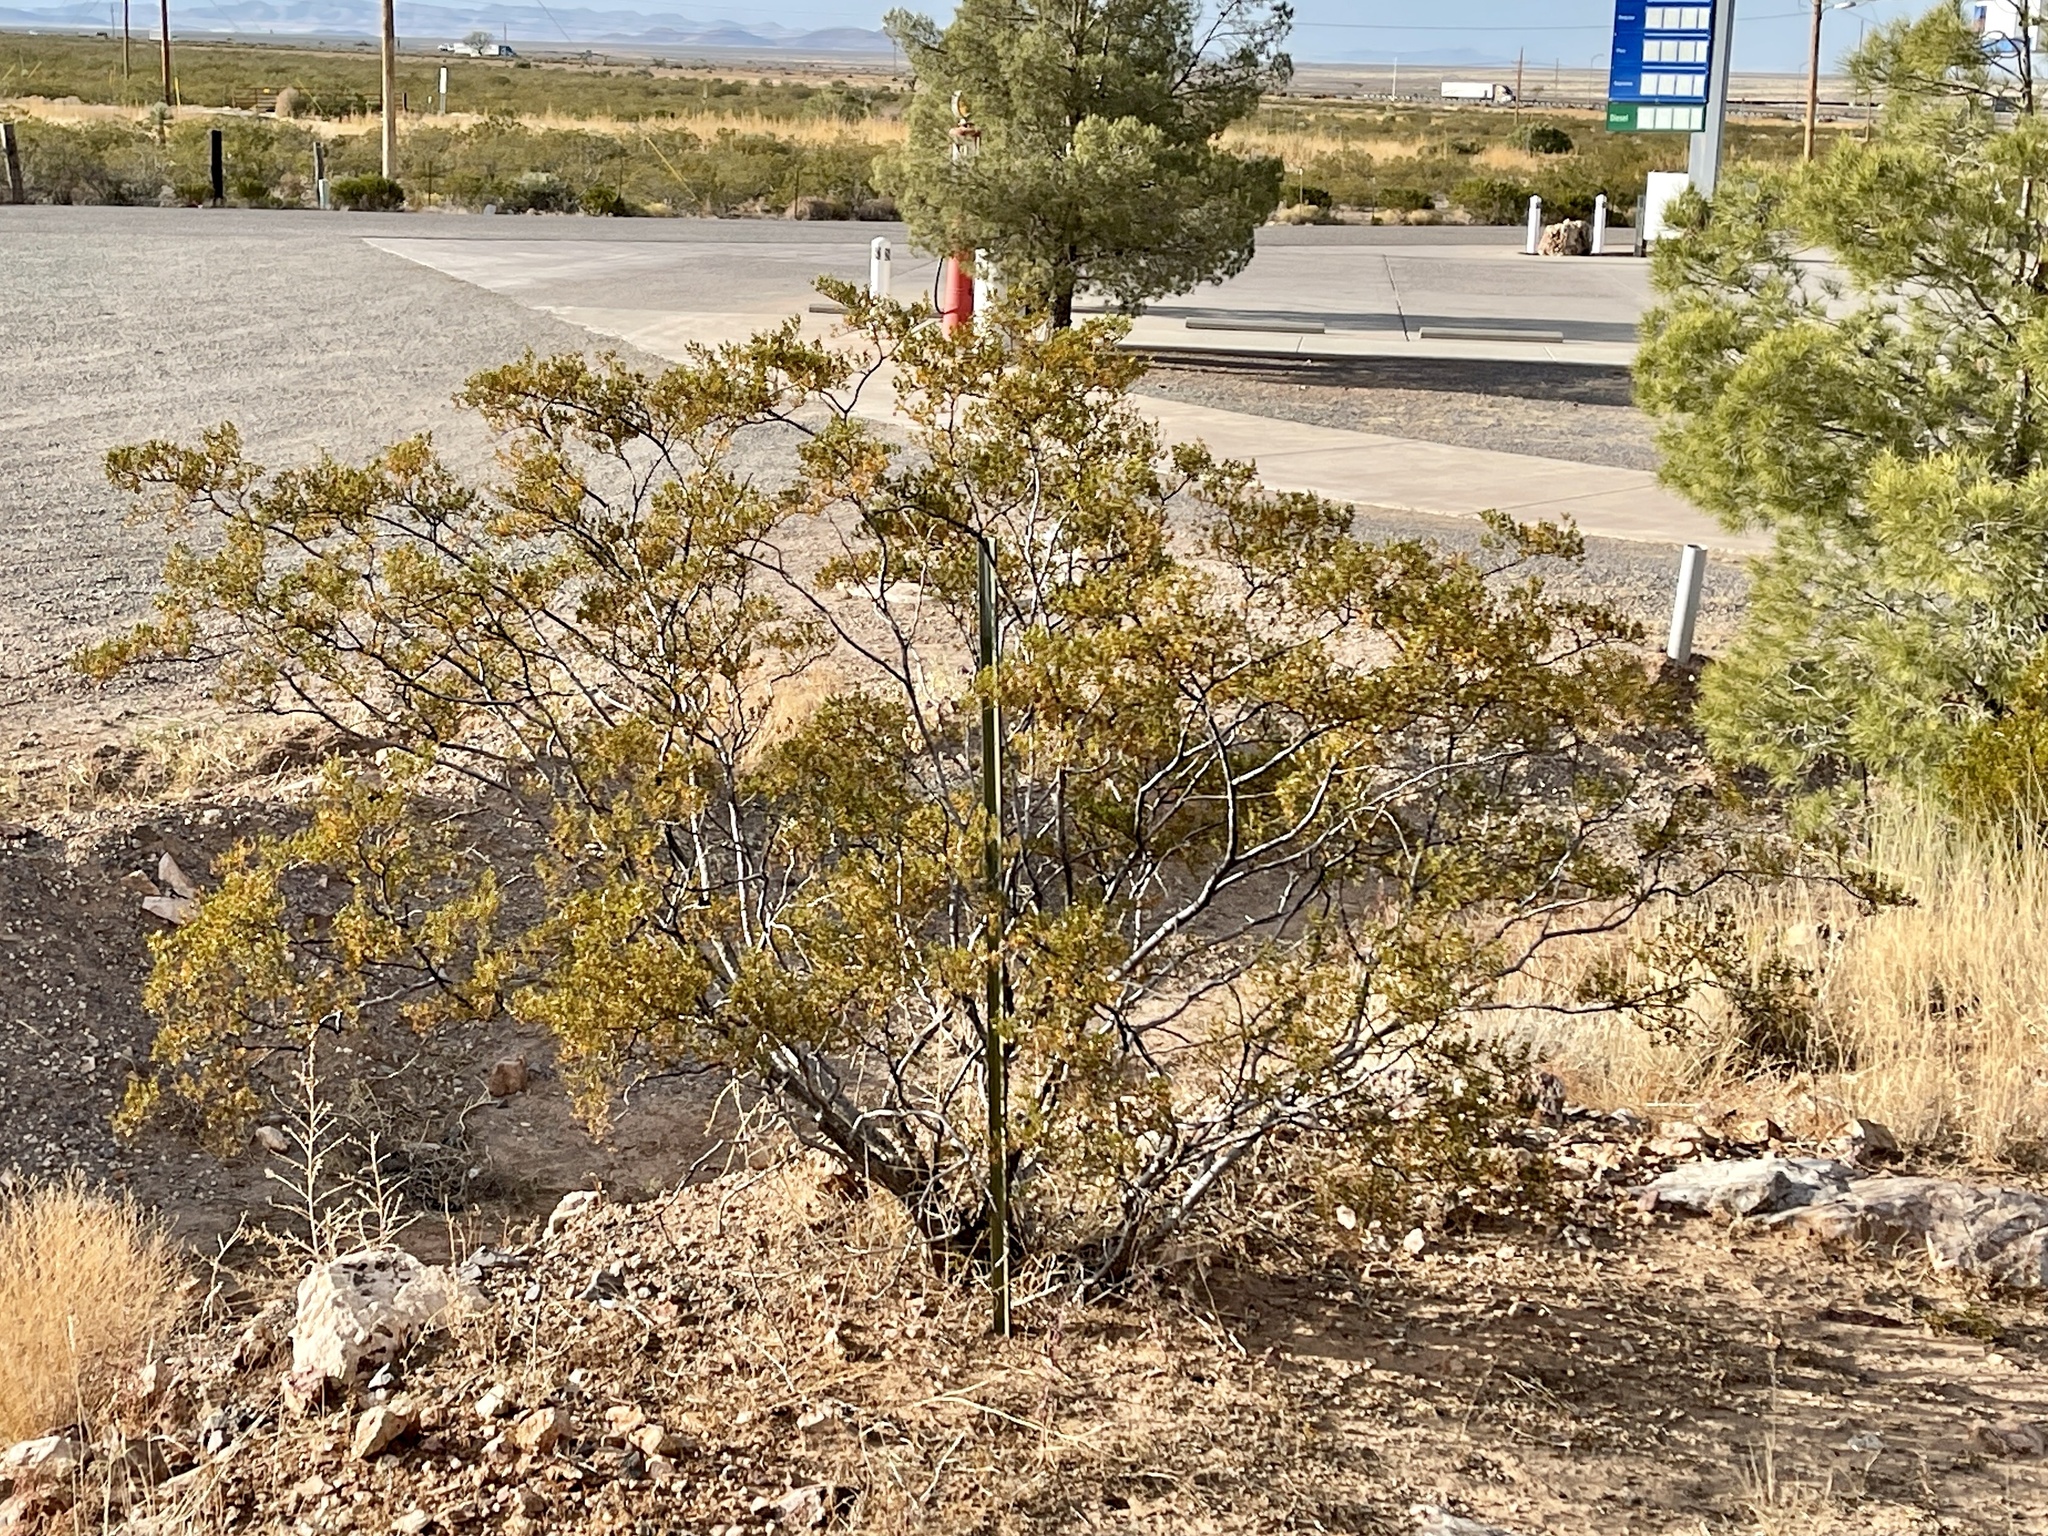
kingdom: Plantae
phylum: Tracheophyta
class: Magnoliopsida
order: Zygophyllales
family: Zygophyllaceae
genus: Larrea
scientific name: Larrea tridentata
